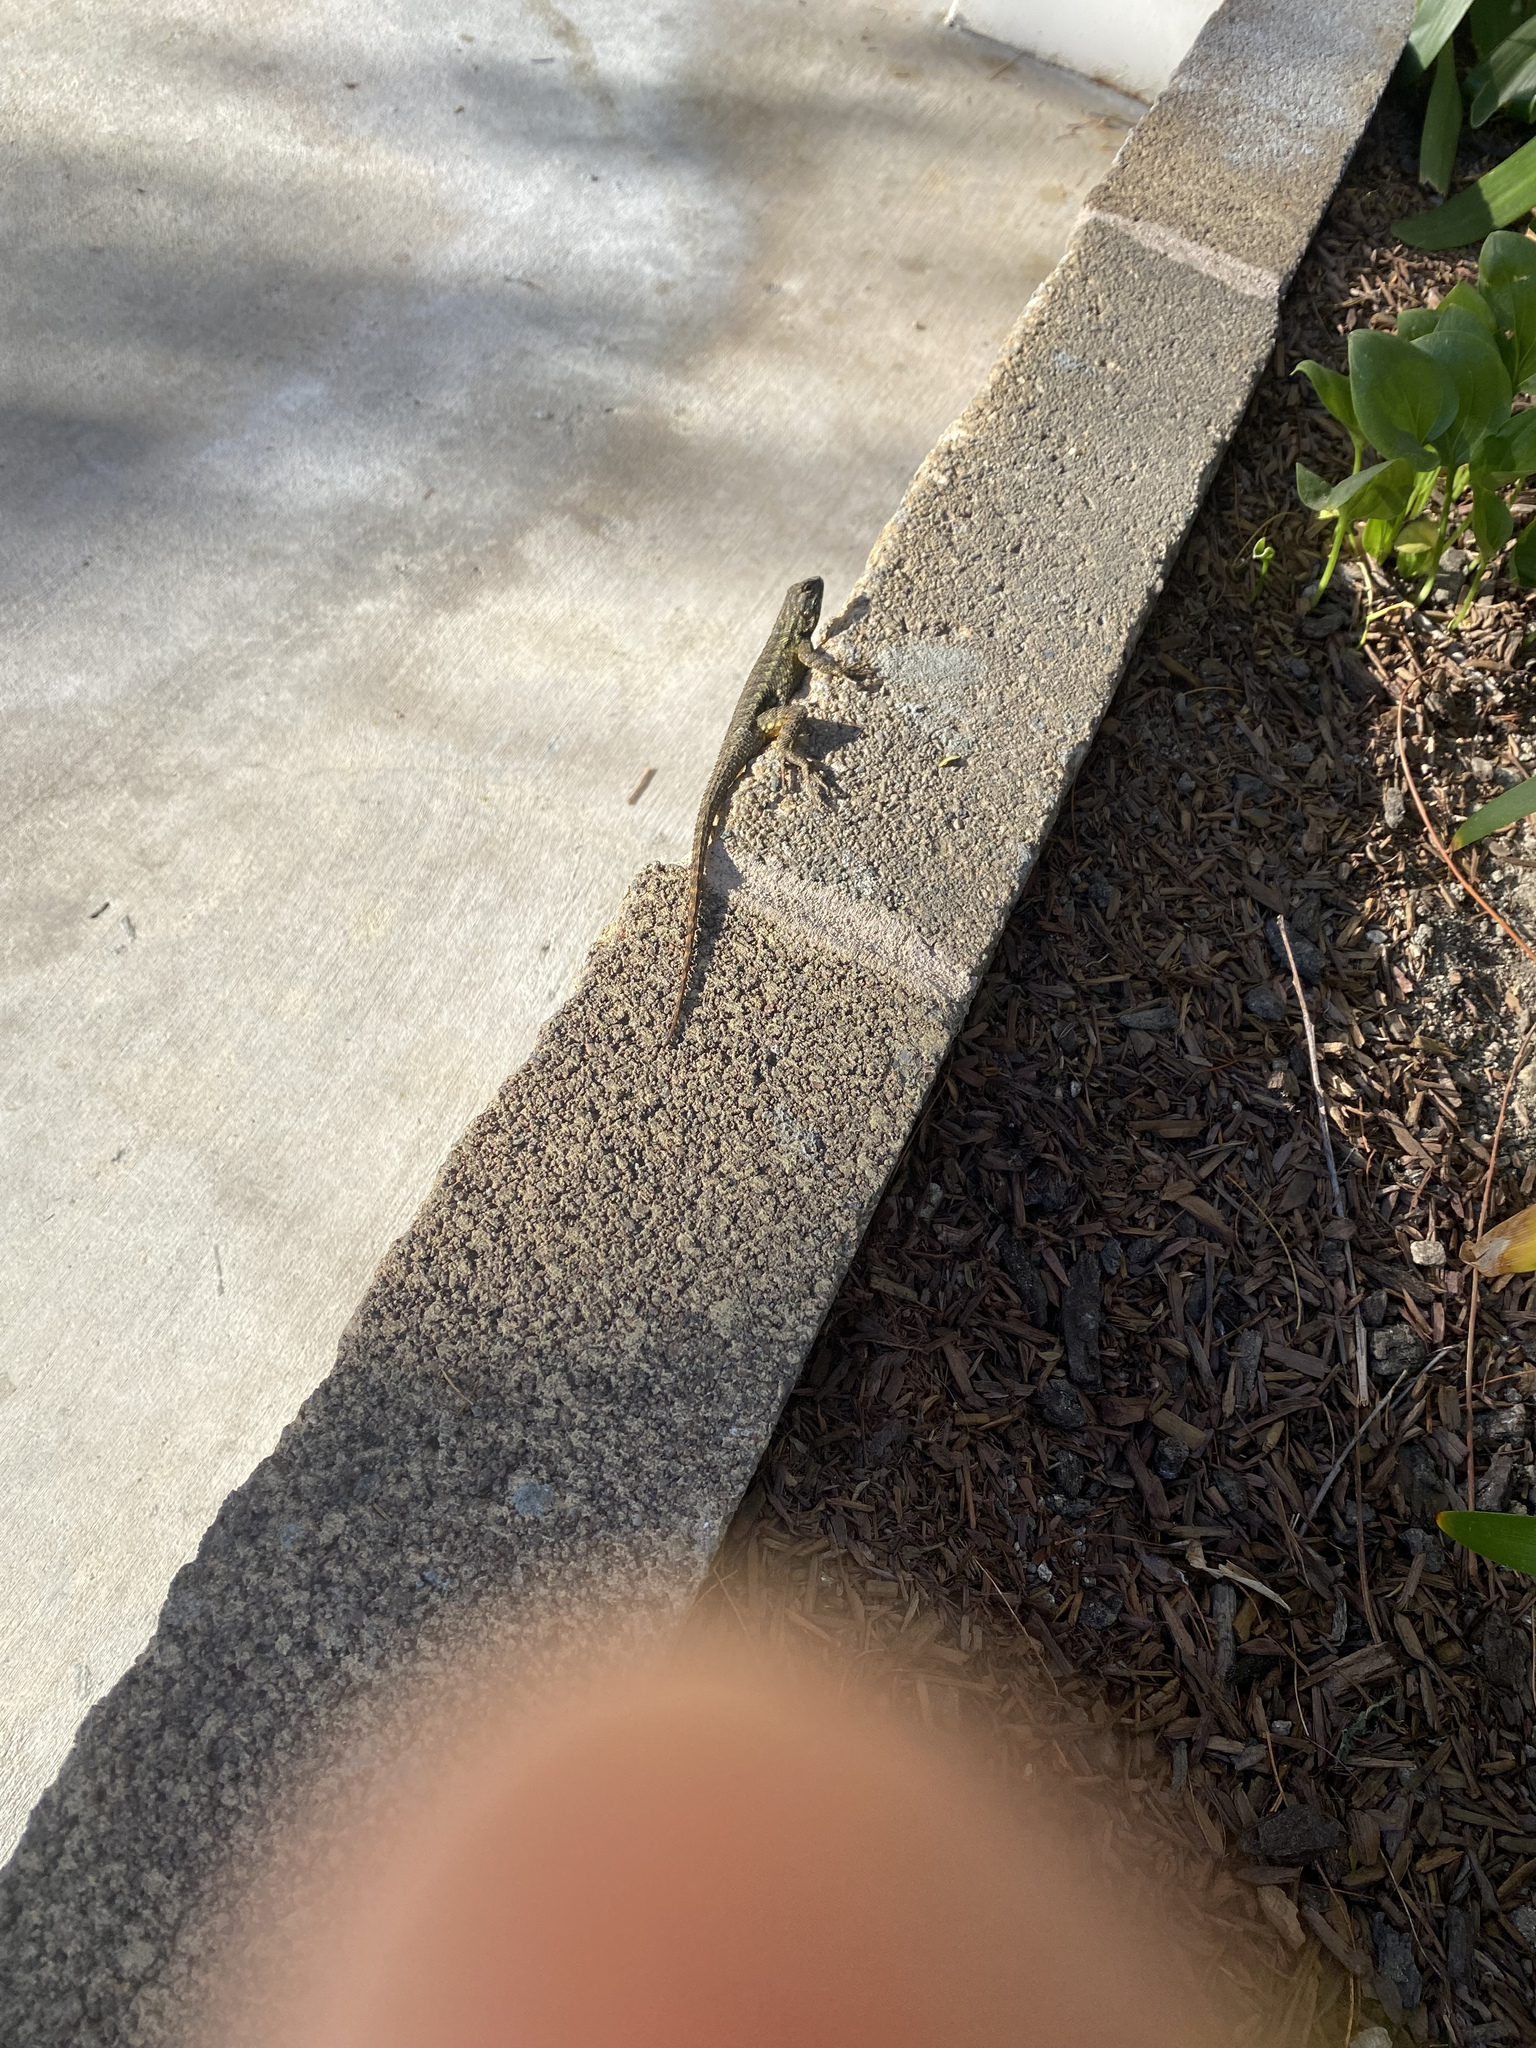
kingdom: Animalia
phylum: Chordata
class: Squamata
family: Phrynosomatidae
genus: Sceloporus
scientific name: Sceloporus occidentalis
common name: Western fence lizard
